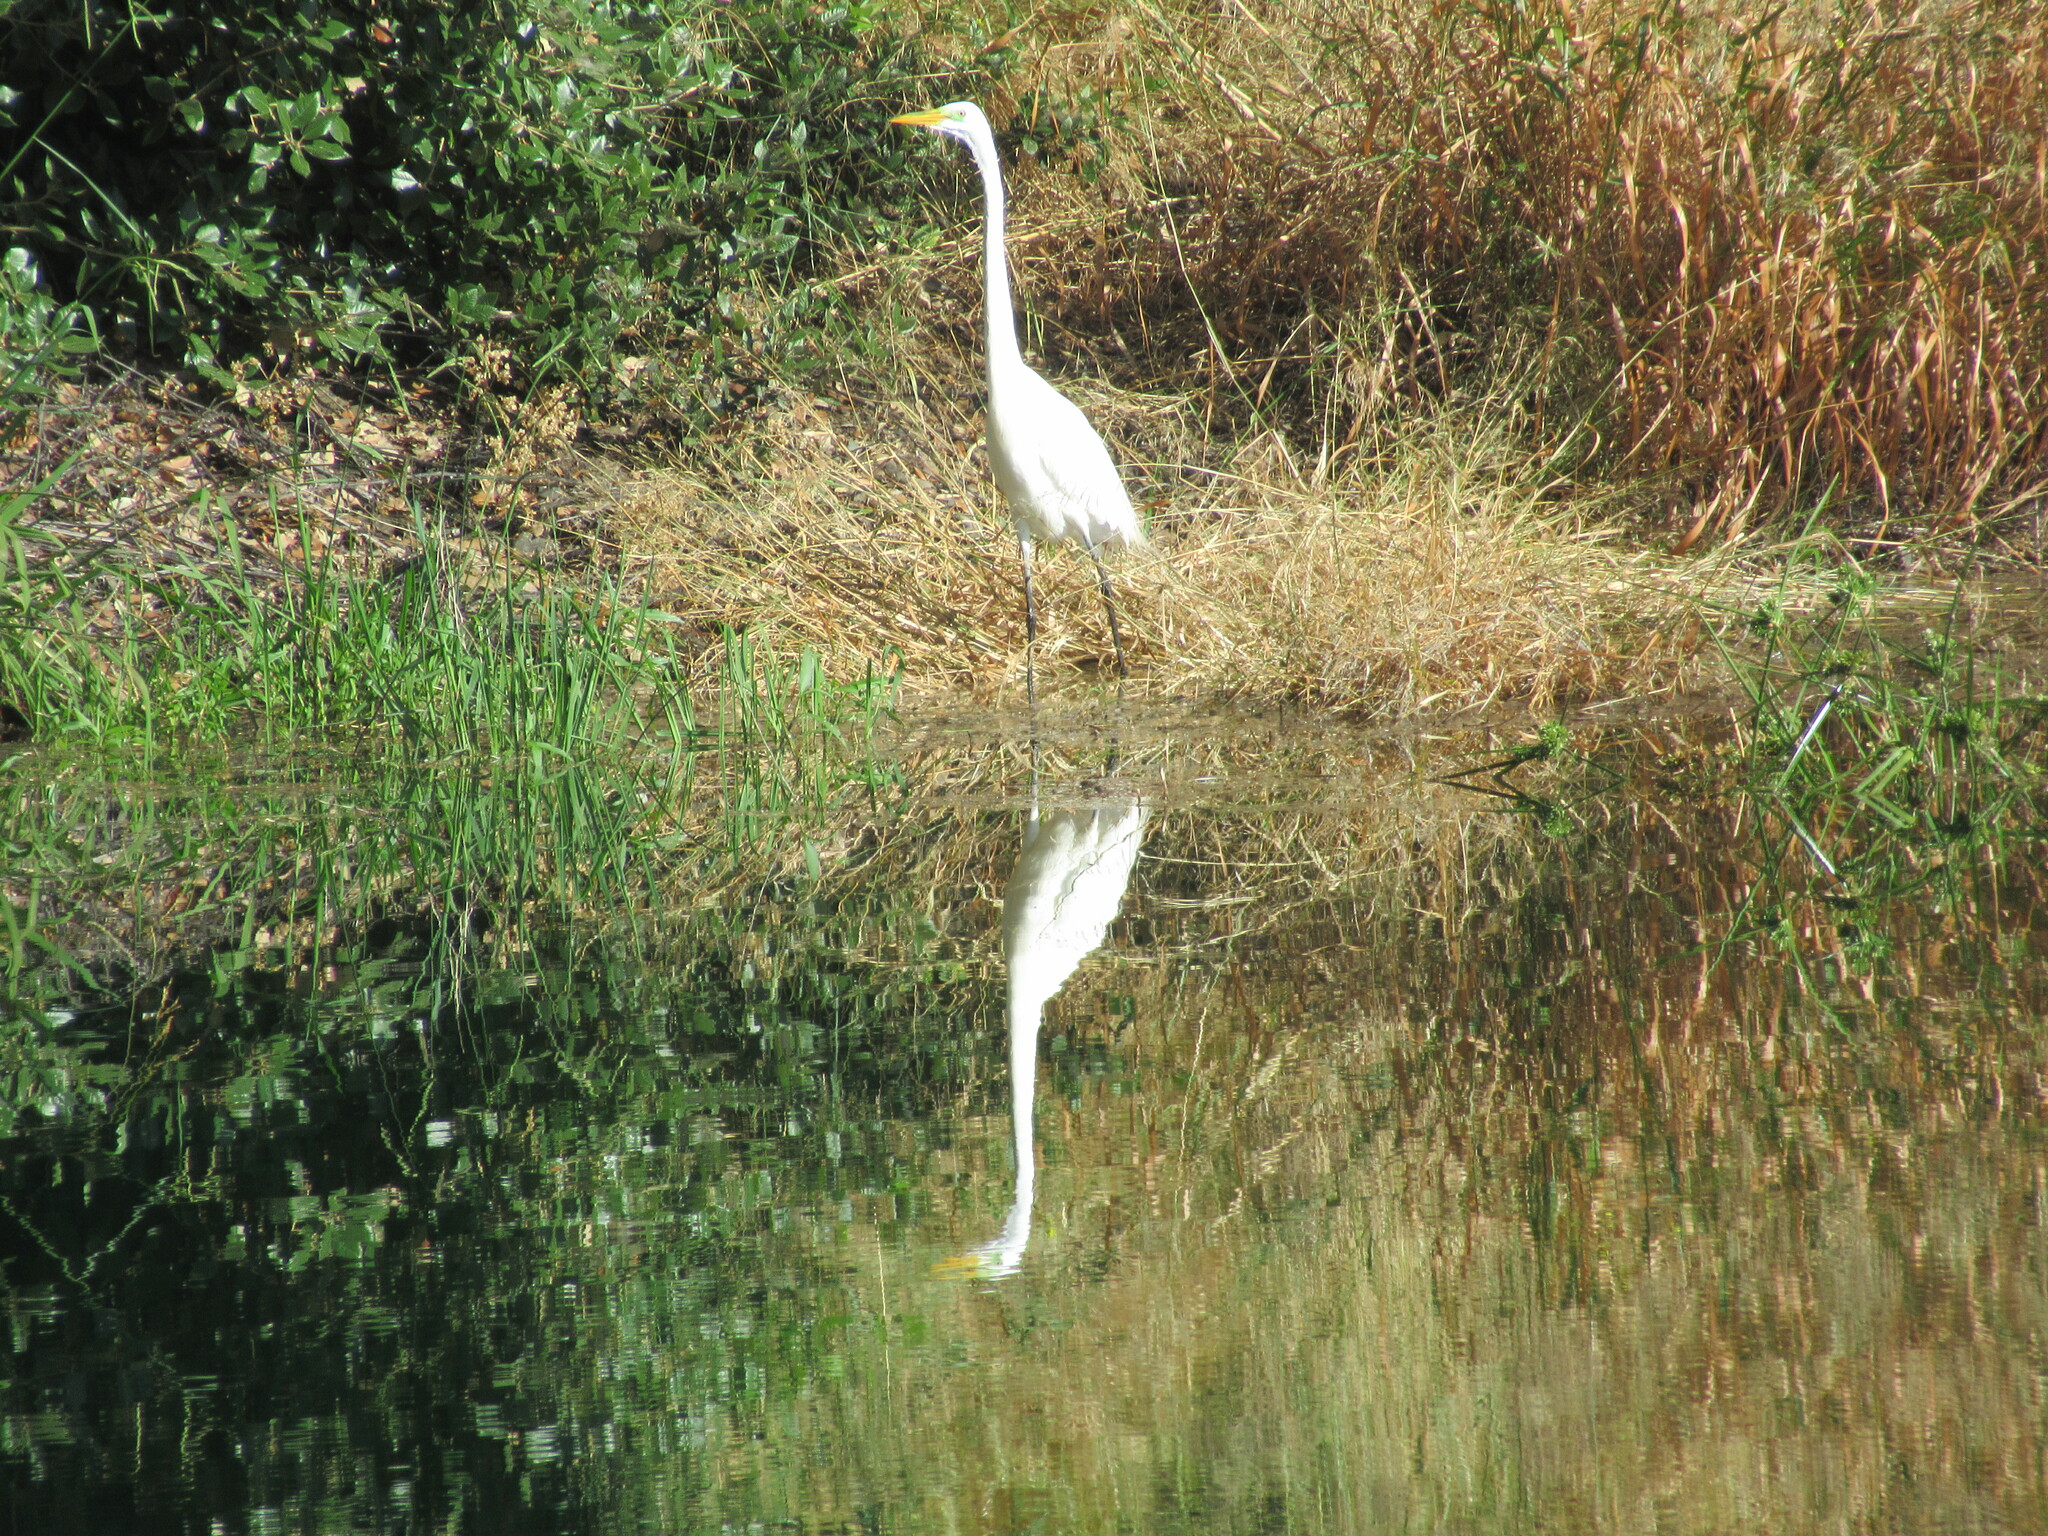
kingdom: Animalia
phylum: Chordata
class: Aves
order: Pelecaniformes
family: Ardeidae
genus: Ardea
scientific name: Ardea alba
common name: Great egret
